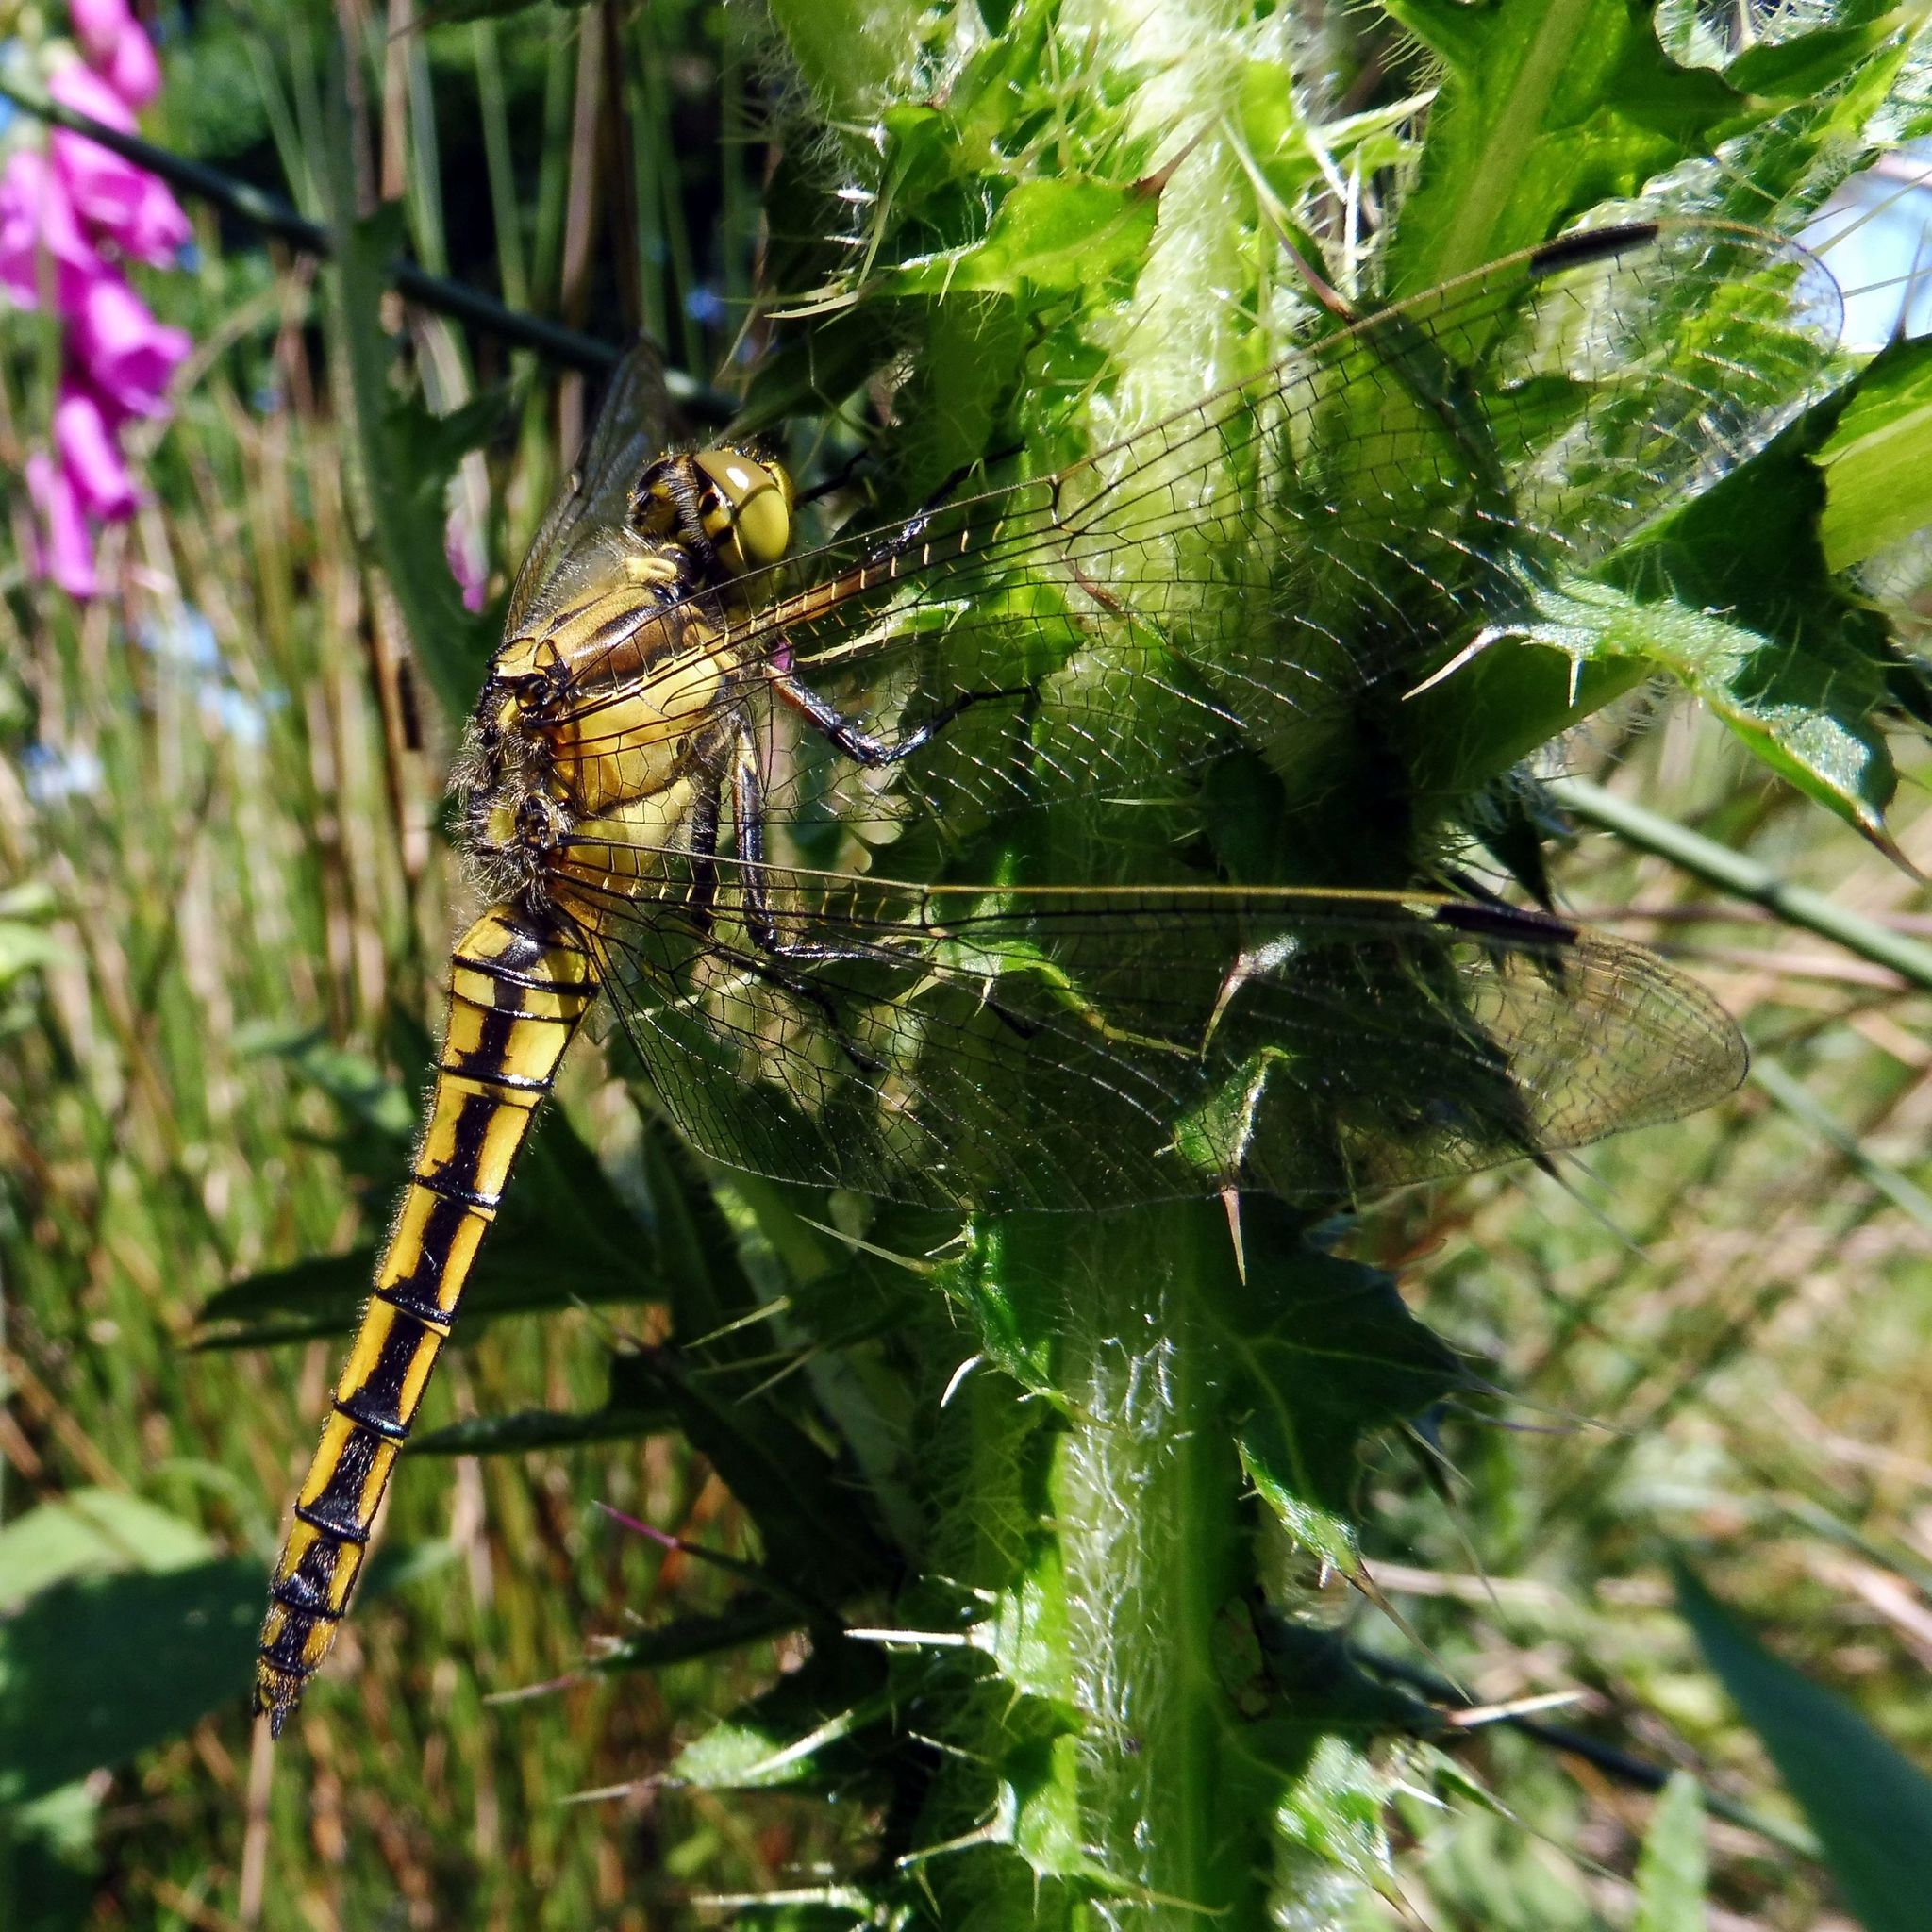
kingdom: Animalia
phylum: Arthropoda
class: Insecta
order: Odonata
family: Libellulidae
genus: Orthetrum
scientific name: Orthetrum cancellatum
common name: Black-tailed skimmer
